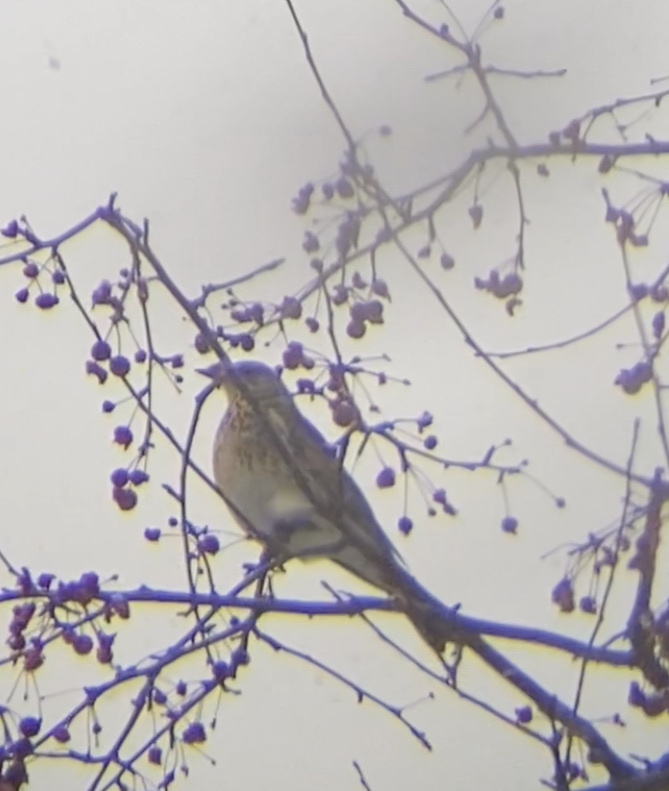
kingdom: Animalia
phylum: Chordata
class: Aves
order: Passeriformes
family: Turdidae
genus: Turdus
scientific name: Turdus pilaris
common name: Fieldfare
